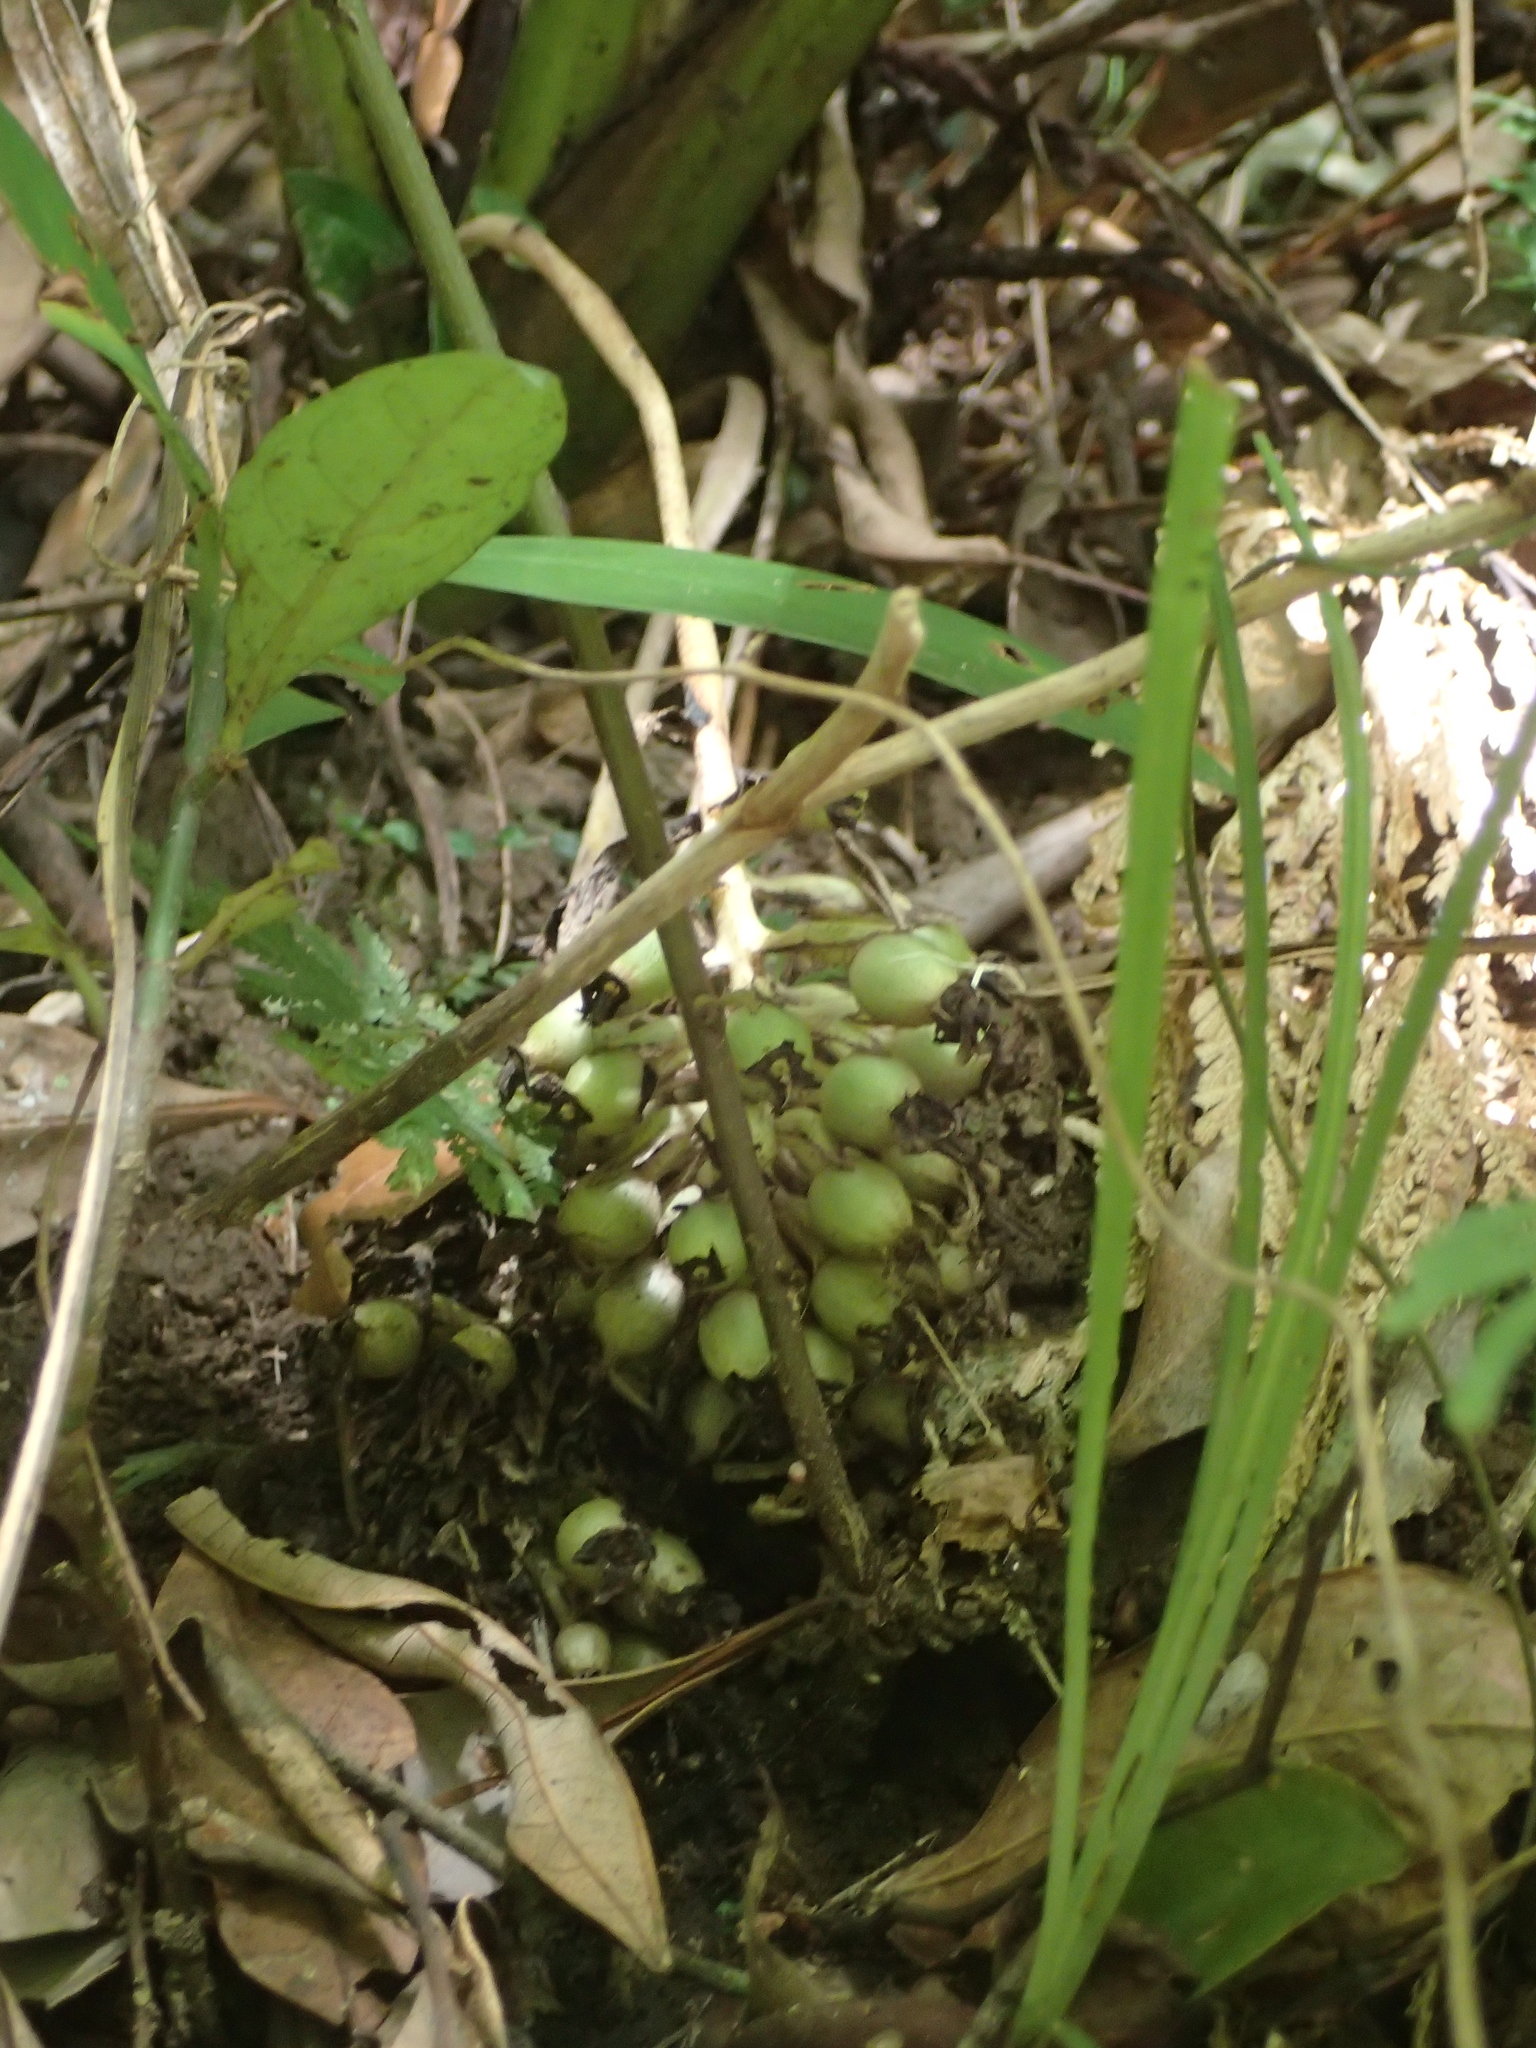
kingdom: Plantae
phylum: Tracheophyta
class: Liliopsida
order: Asparagales
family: Hypoxidaceae
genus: Curculigo
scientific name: Curculigo capitulata
